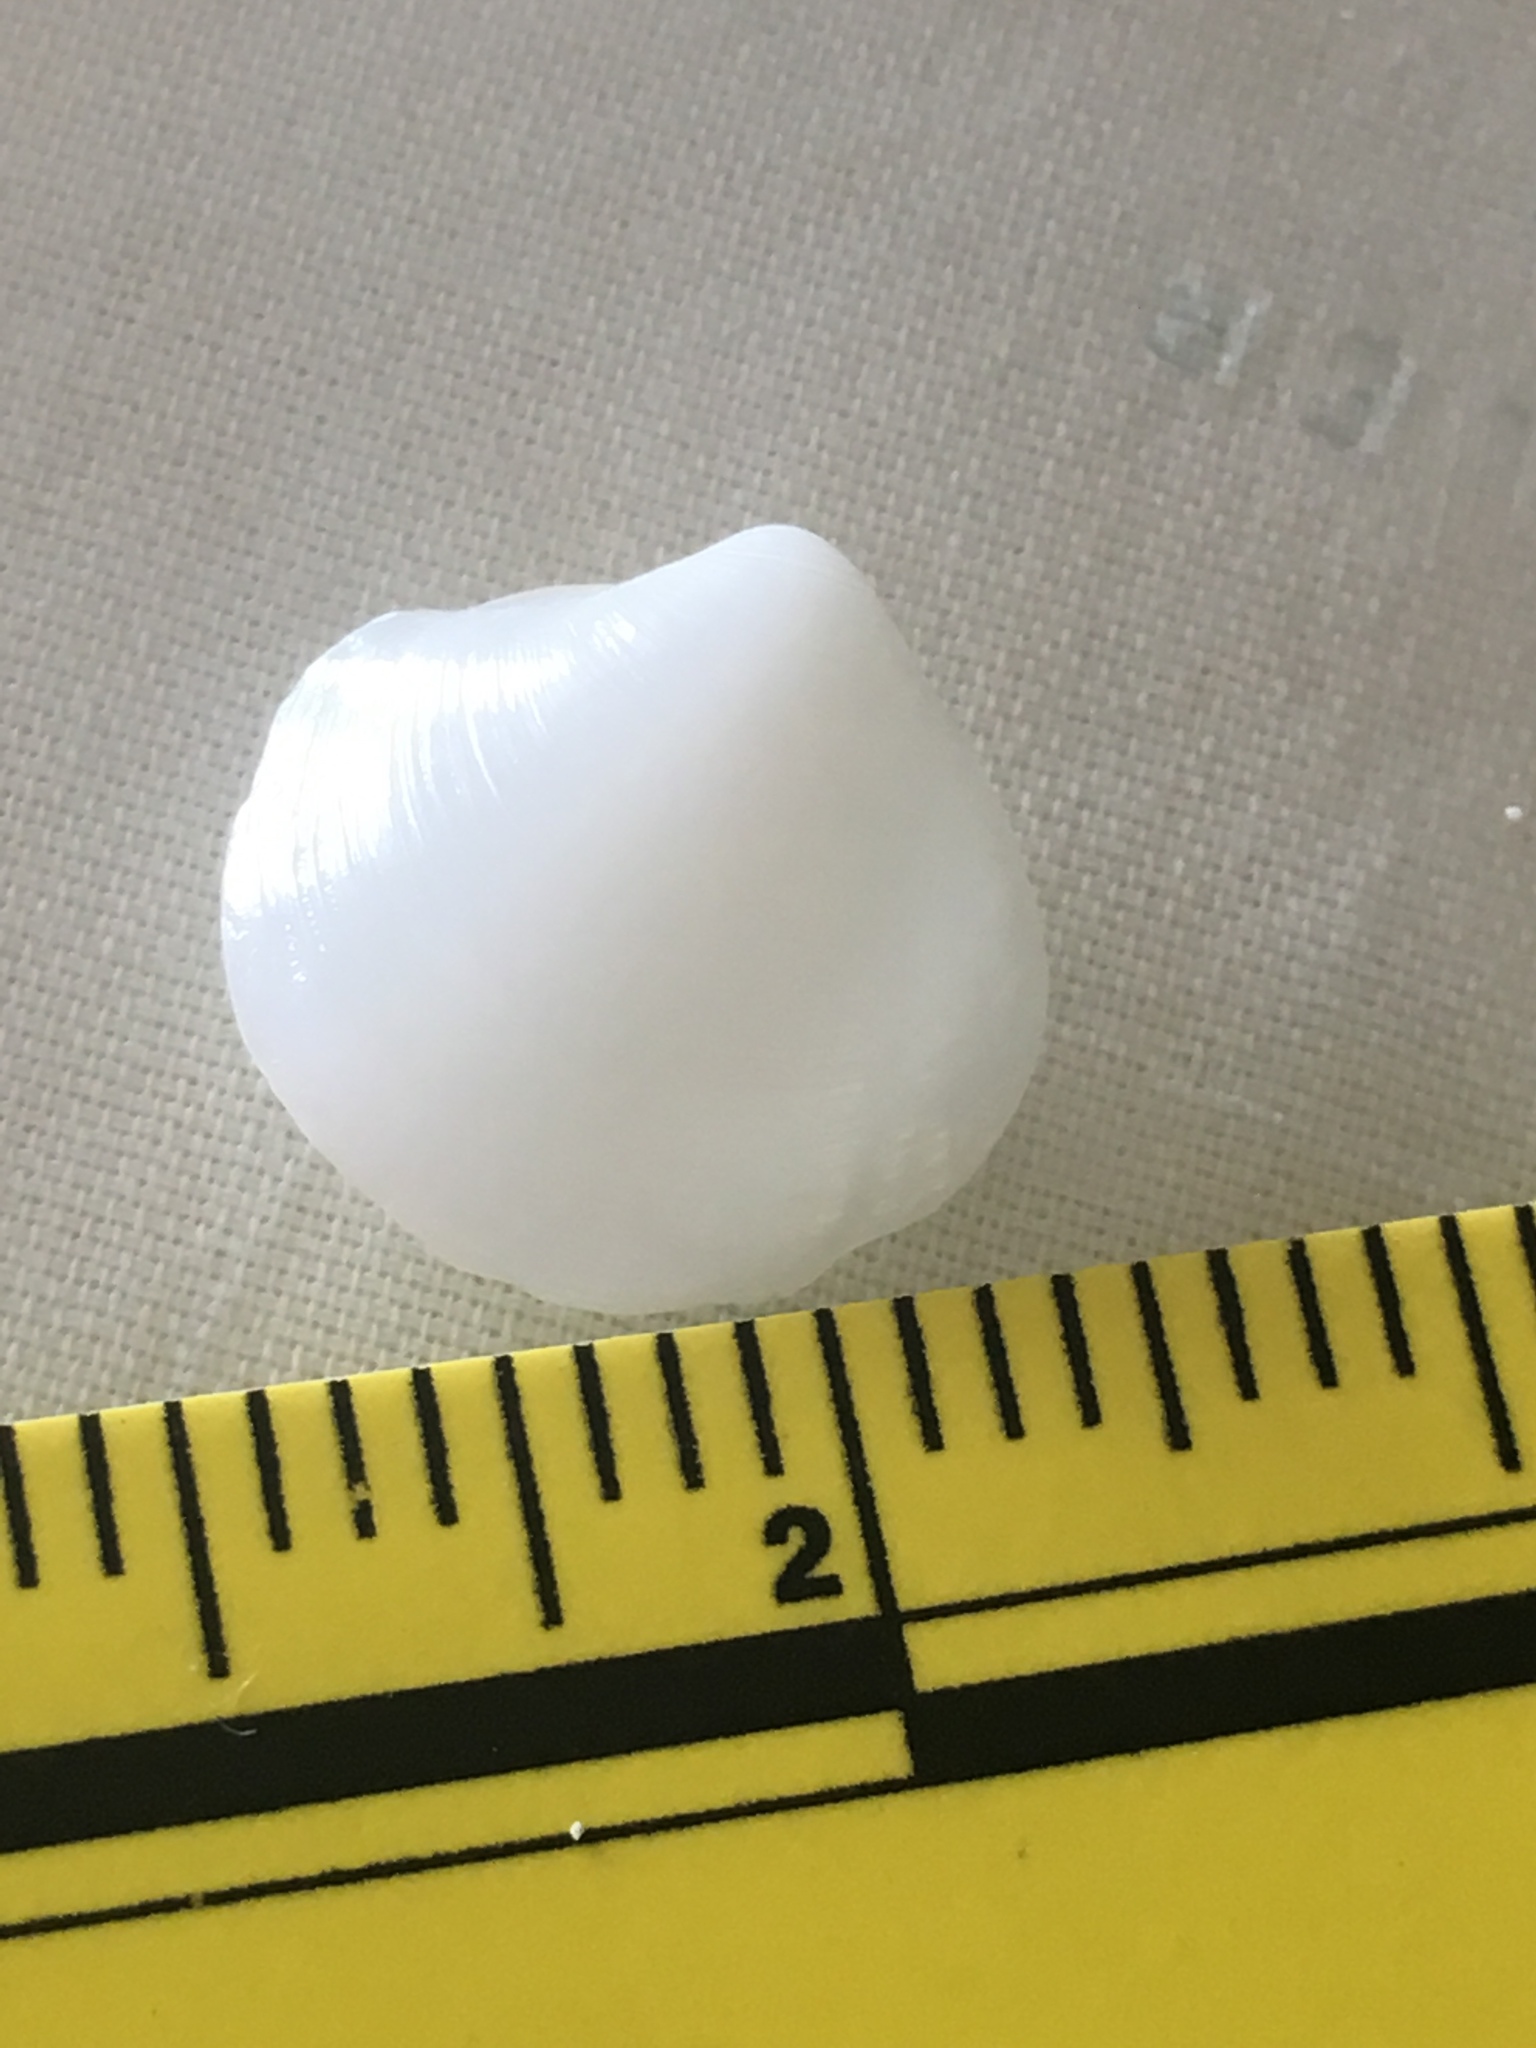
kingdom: Animalia
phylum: Mollusca
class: Bivalvia
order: Lucinida
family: Lucinidae
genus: Lucina
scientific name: Lucina pensylvanica
